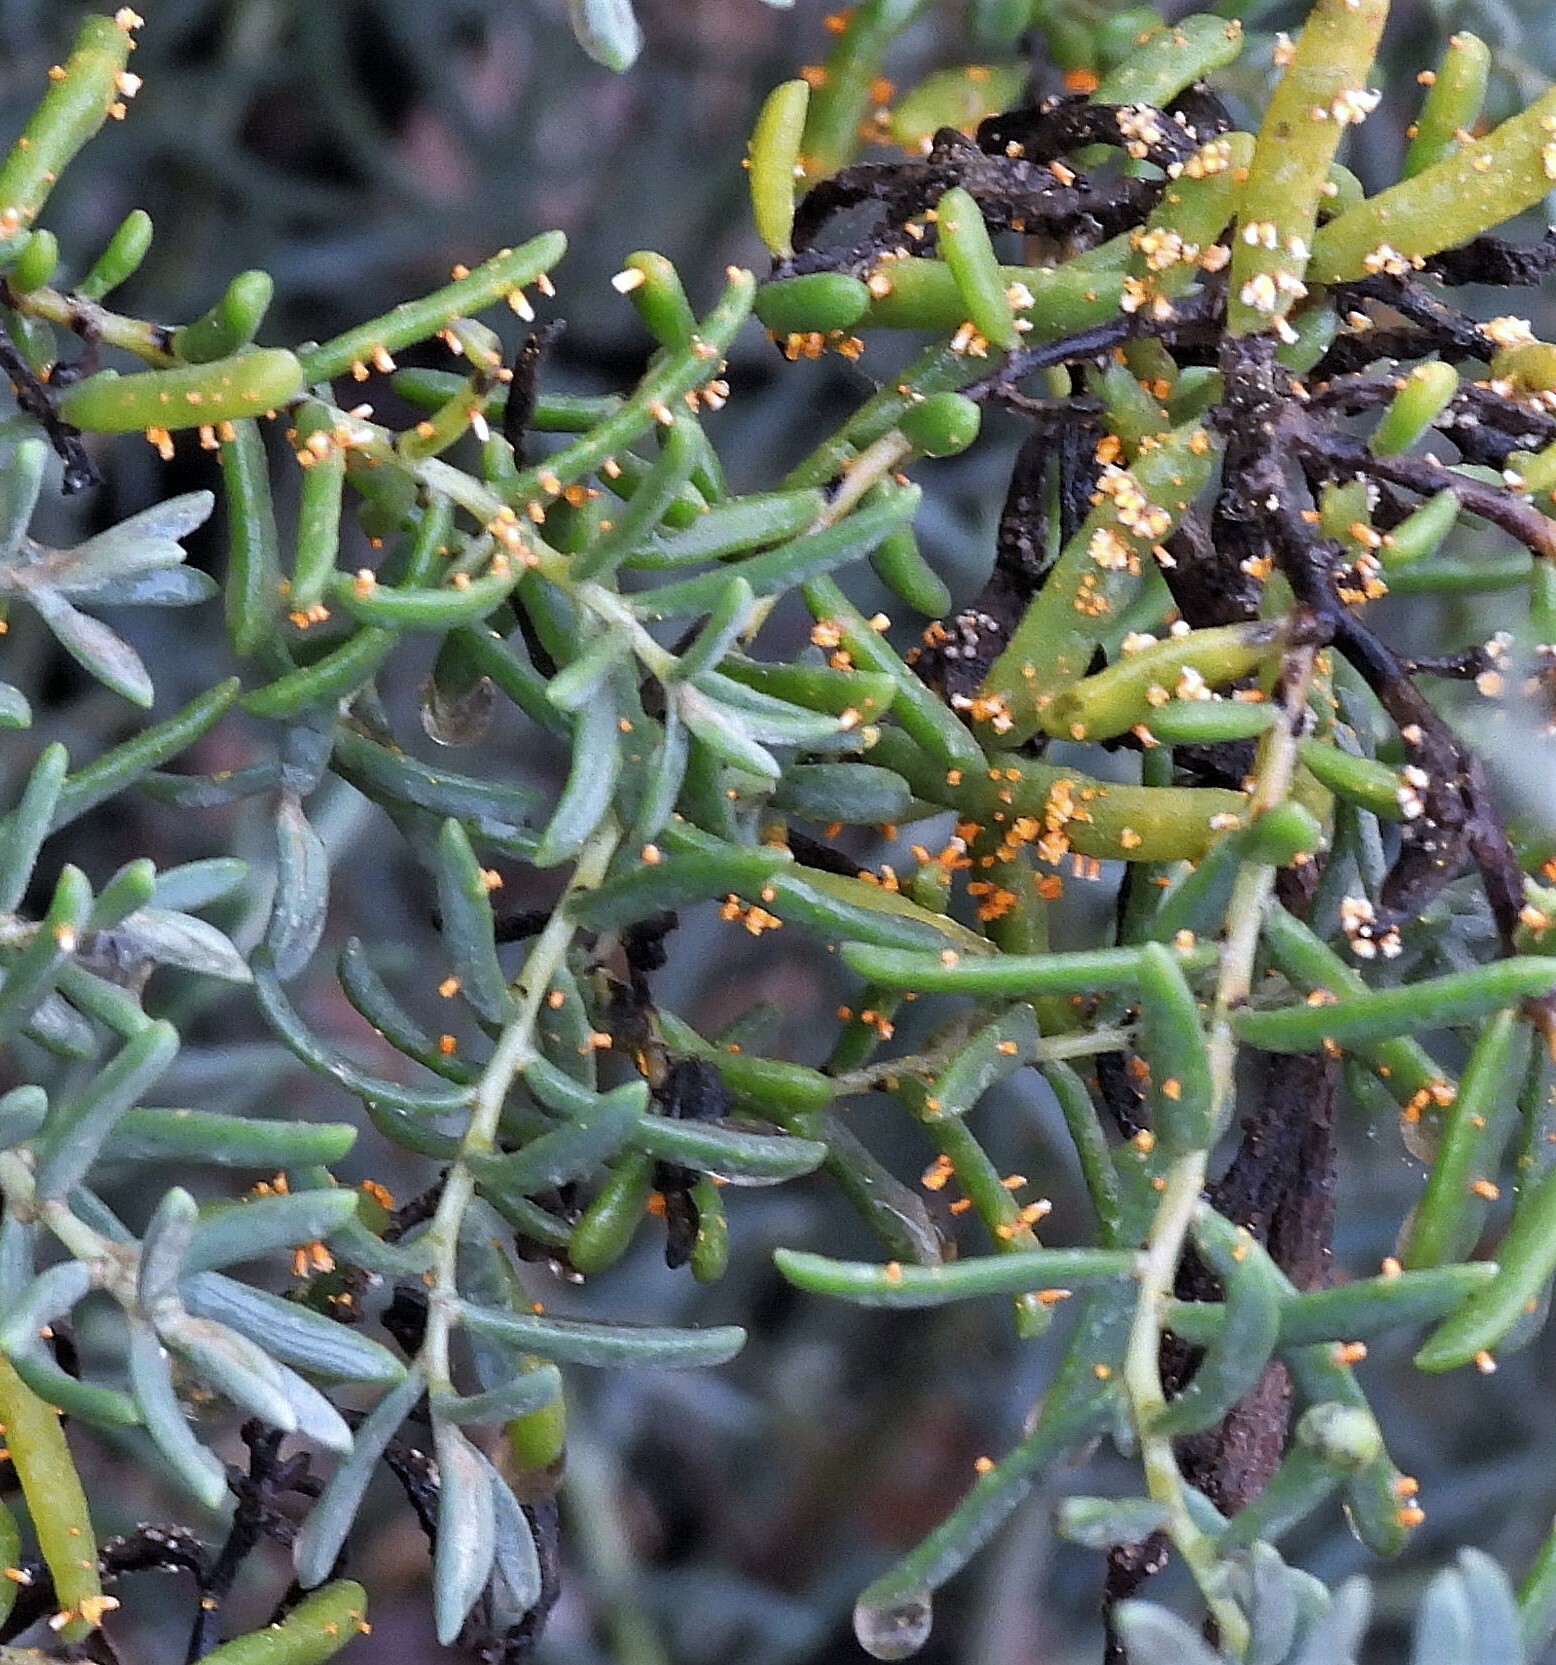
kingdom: Plantae
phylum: Tracheophyta
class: Magnoliopsida
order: Caryophyllales
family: Amaranthaceae
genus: Suaeda
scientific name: Suaeda divaricata
